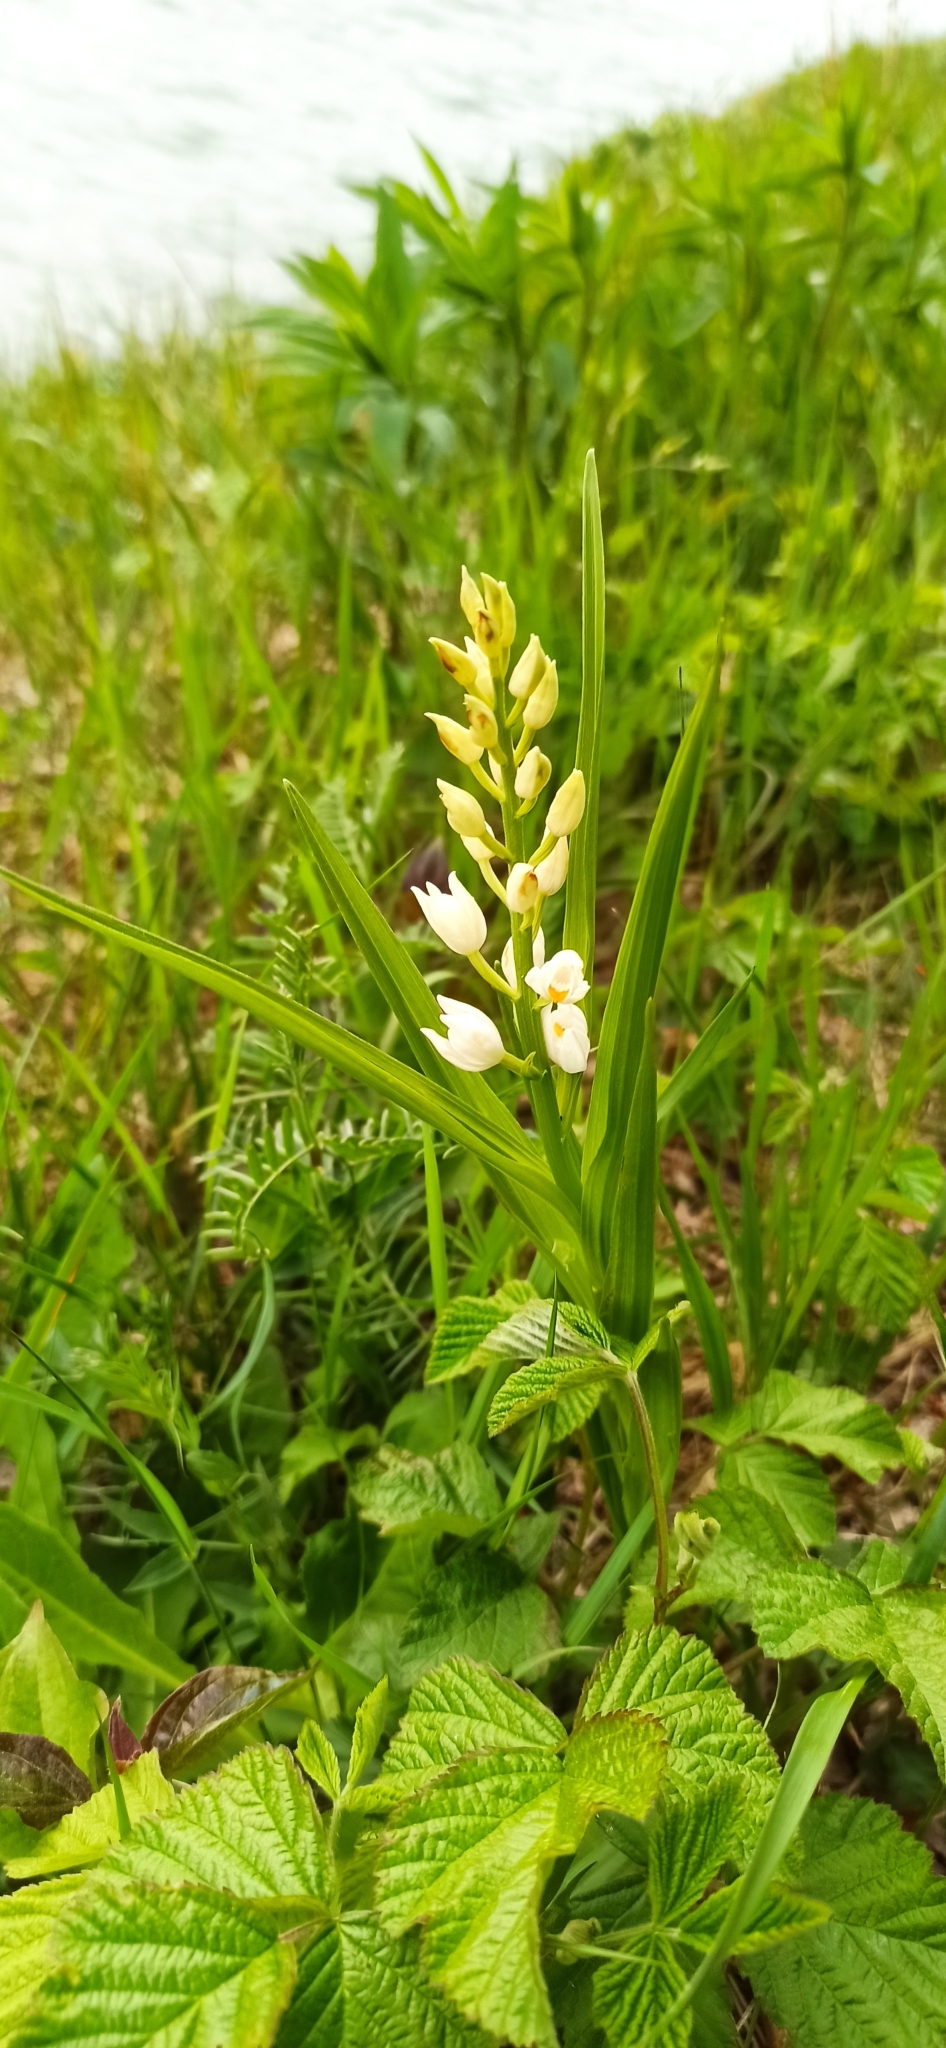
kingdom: Plantae
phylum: Tracheophyta
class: Liliopsida
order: Asparagales
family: Orchidaceae
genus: Cephalanthera
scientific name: Cephalanthera longifolia
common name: Narrow-leaved helleborine
